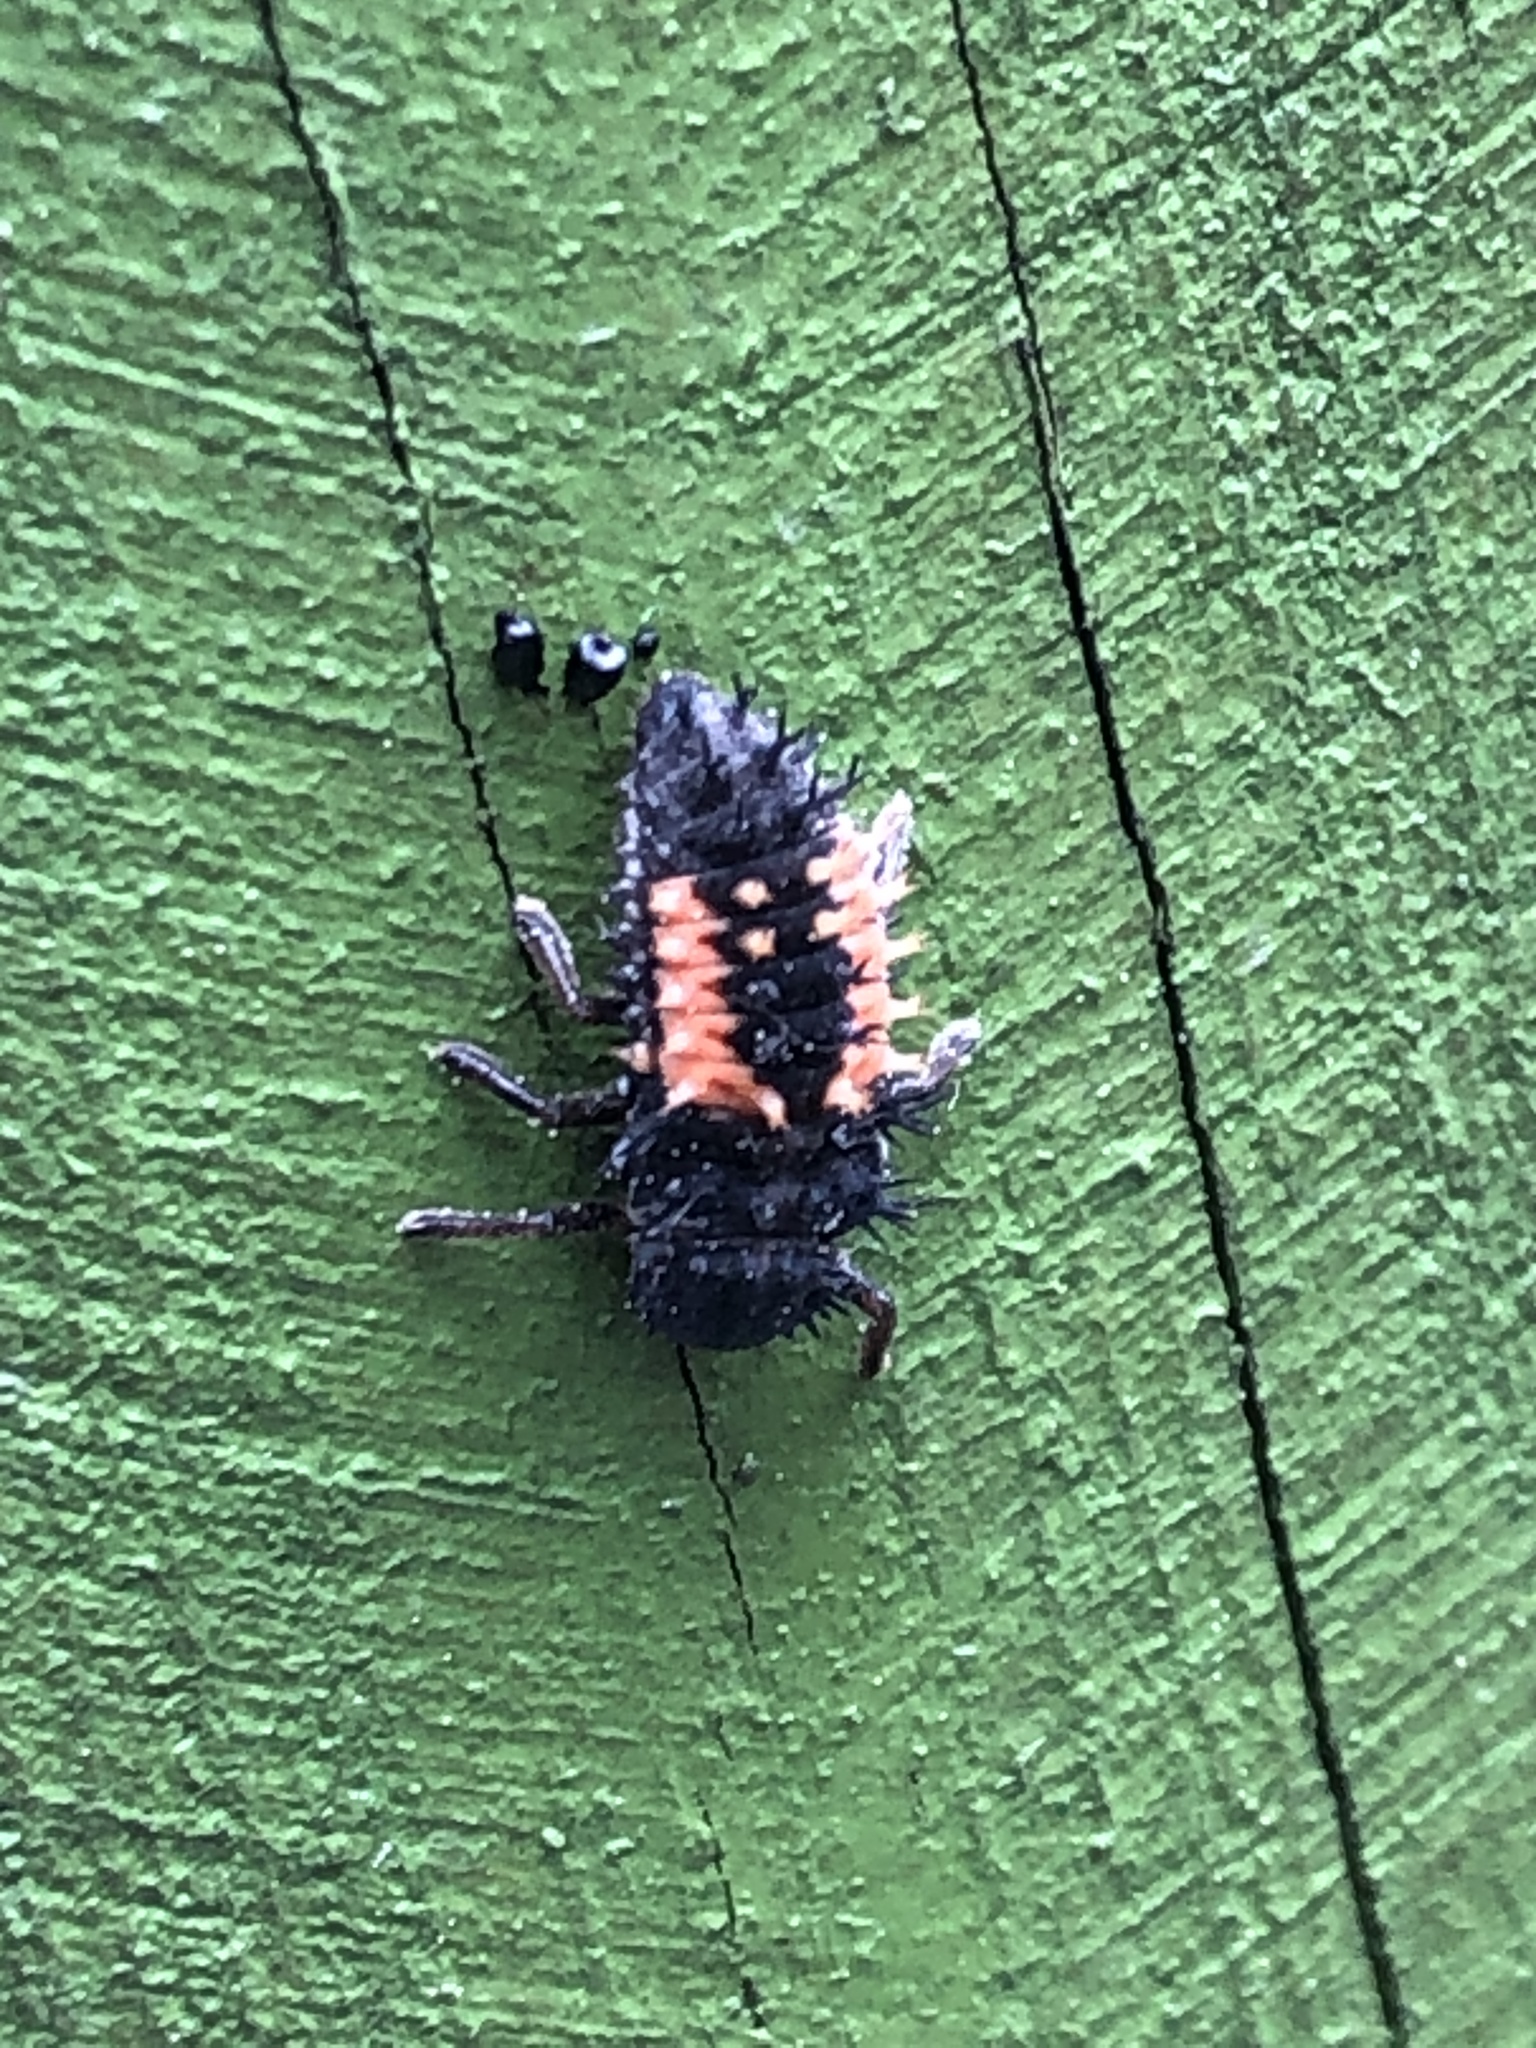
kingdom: Animalia
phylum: Arthropoda
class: Insecta
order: Coleoptera
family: Coccinellidae
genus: Harmonia
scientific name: Harmonia axyridis
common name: Harlequin ladybird
